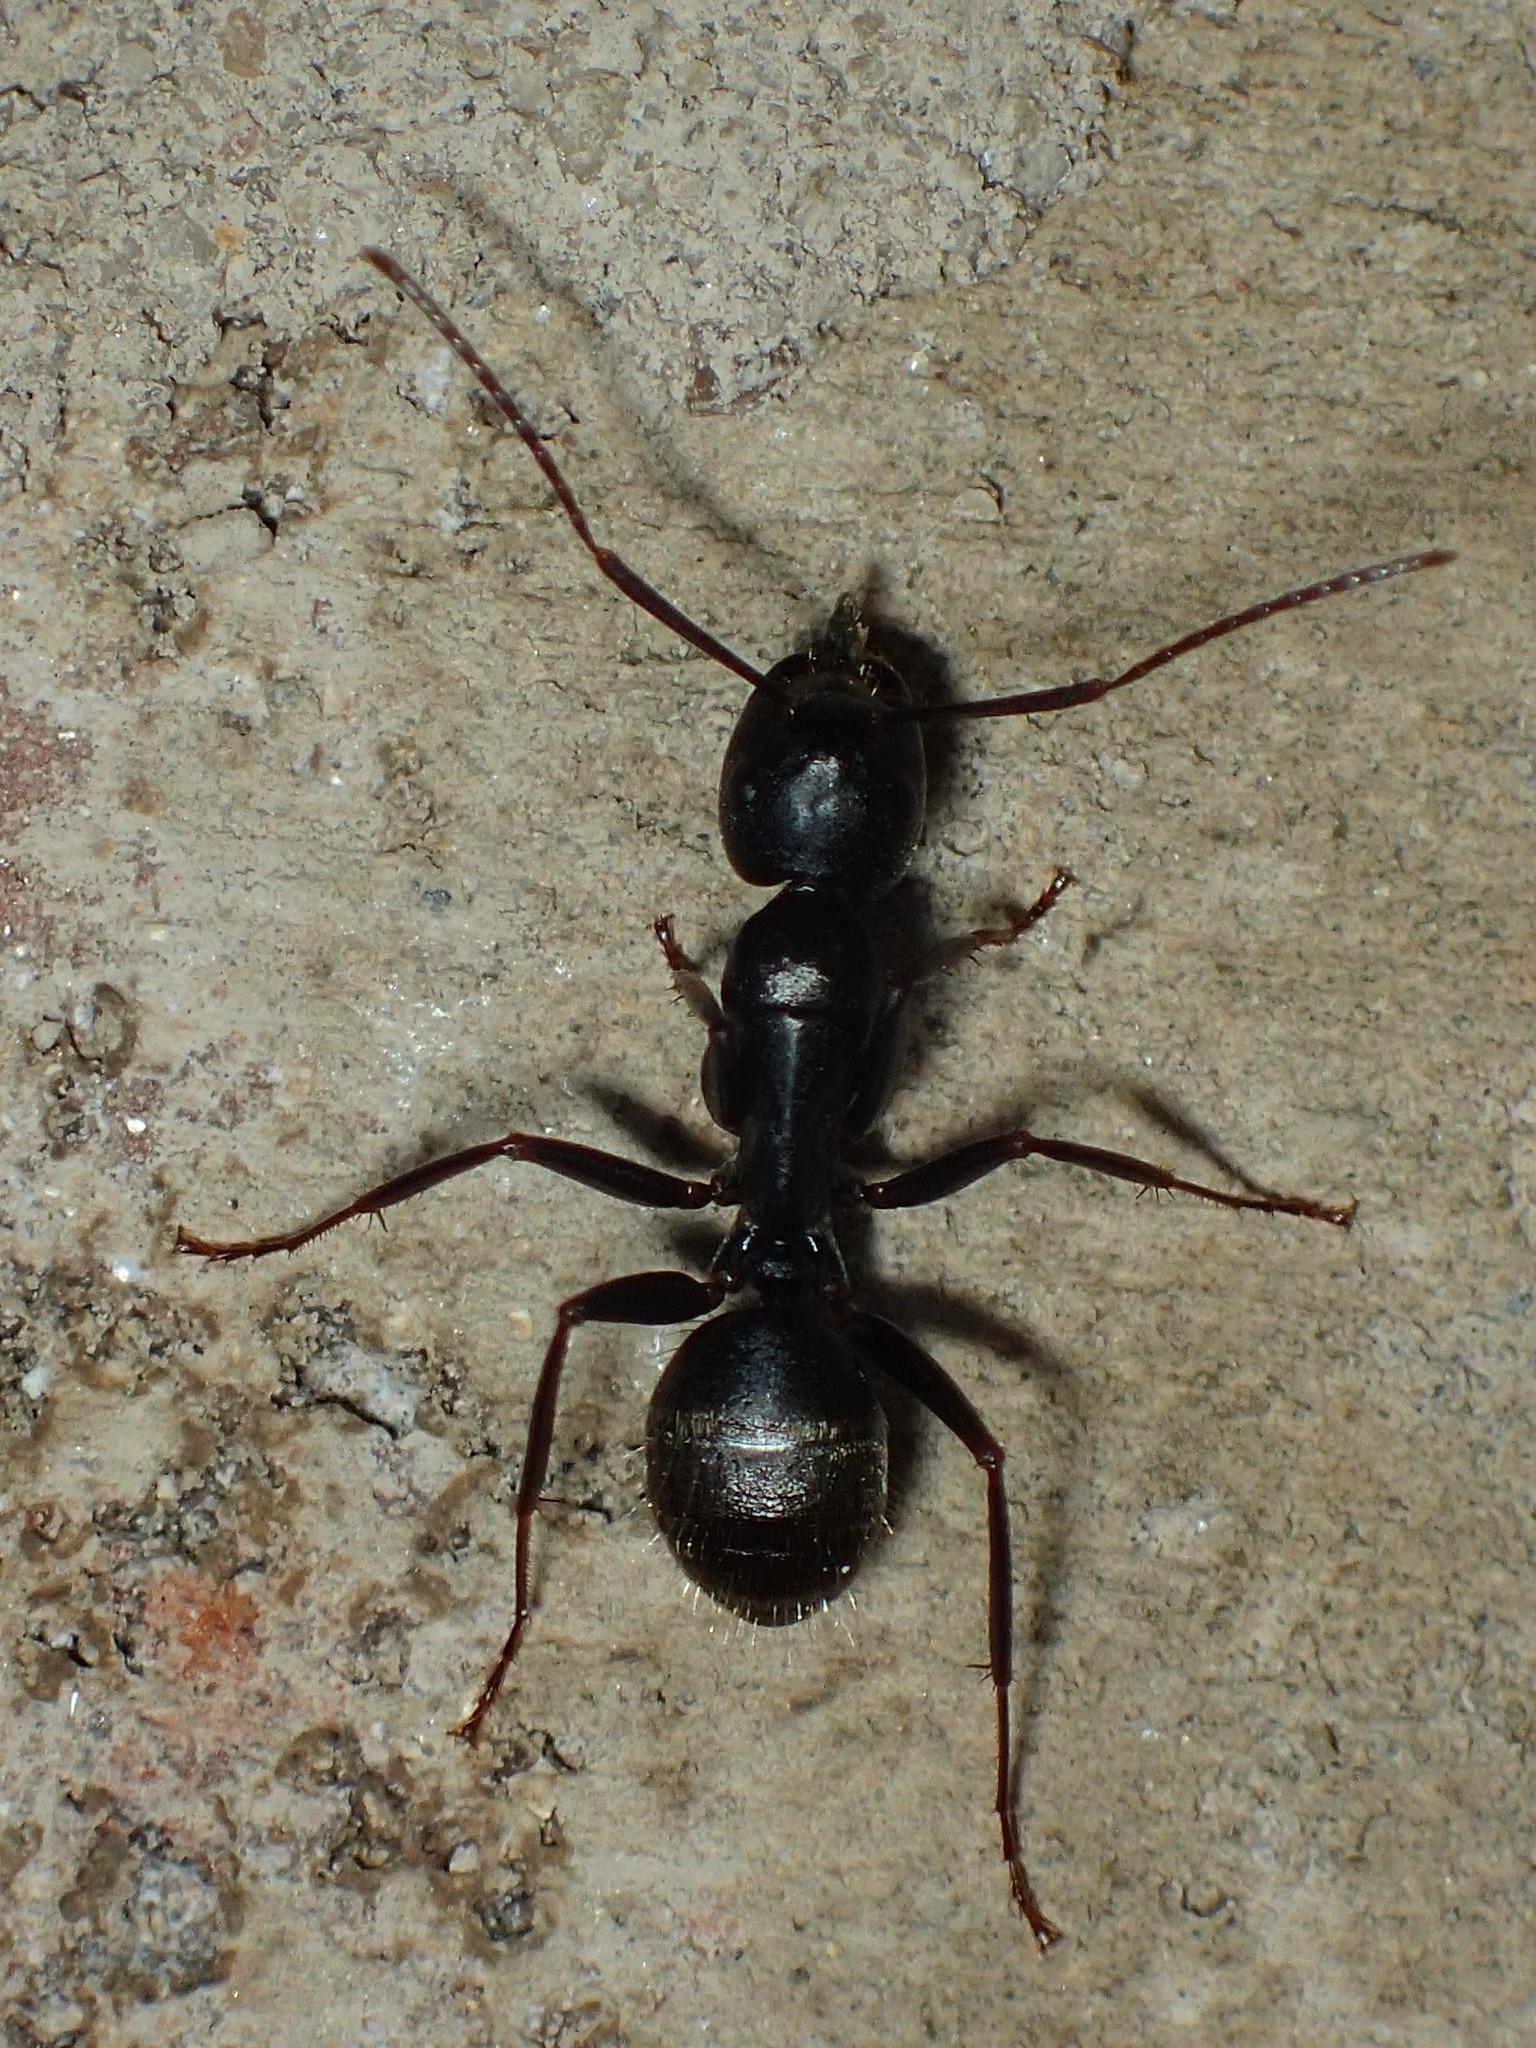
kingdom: Animalia
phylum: Arthropoda
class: Insecta
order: Hymenoptera
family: Formicidae
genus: Camponotus
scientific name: Camponotus pennsylvanicus
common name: Black carpenter ant
